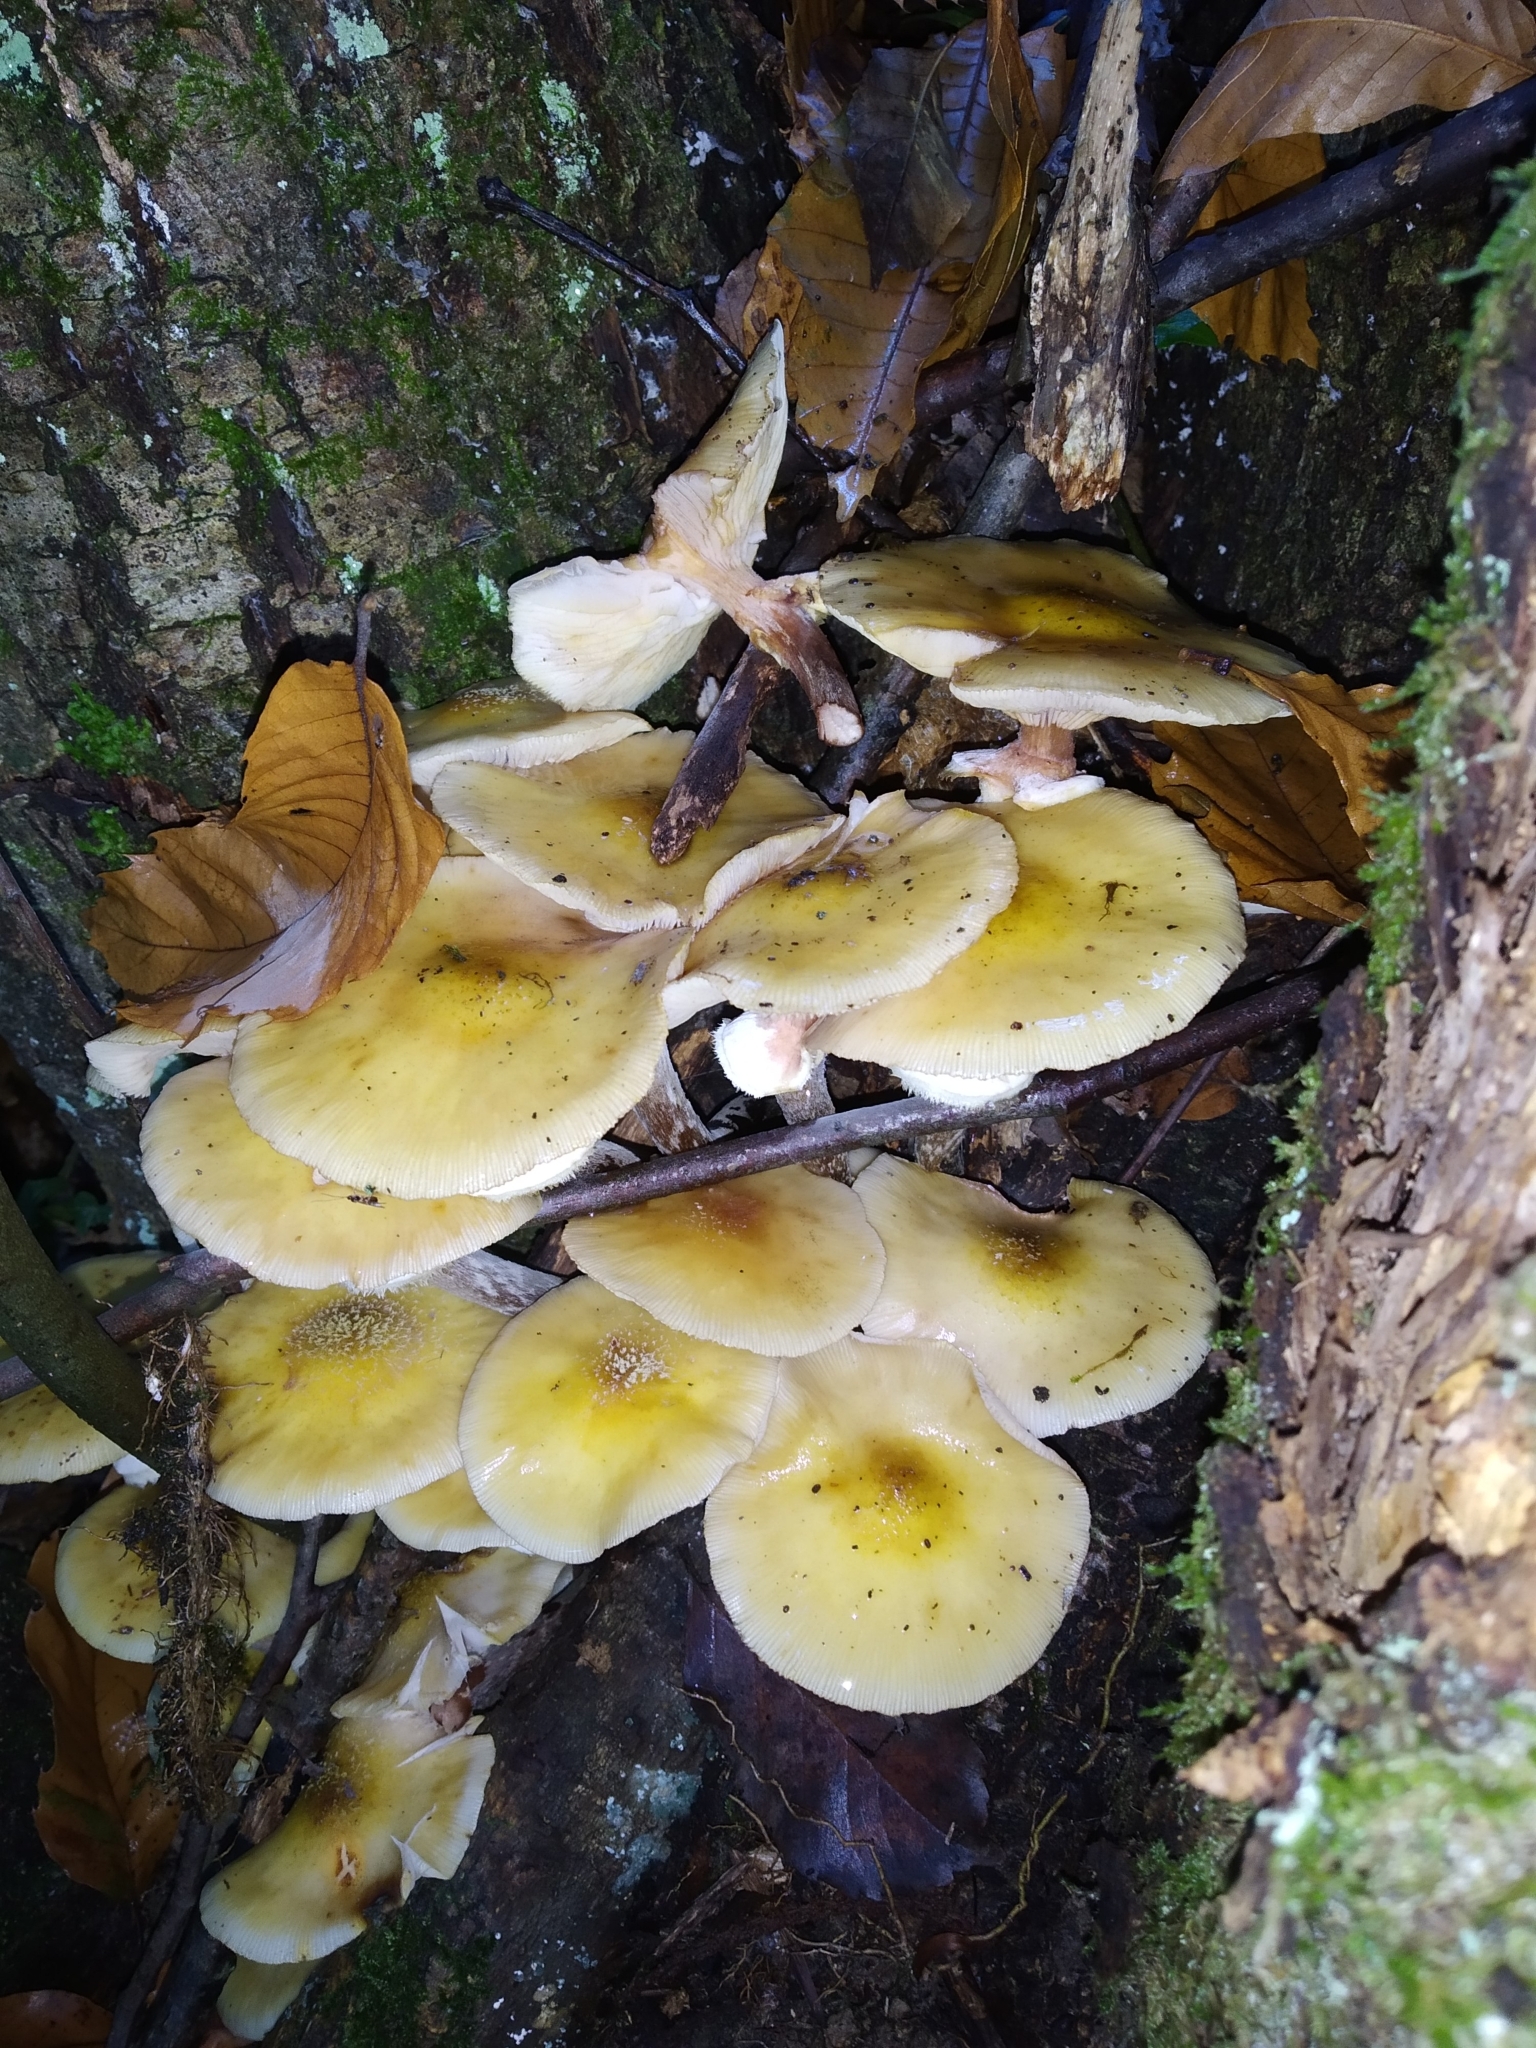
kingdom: Fungi
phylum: Basidiomycota
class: Agaricomycetes
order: Agaricales
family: Physalacriaceae
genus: Armillaria
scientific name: Armillaria mellea
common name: Honey fungus
